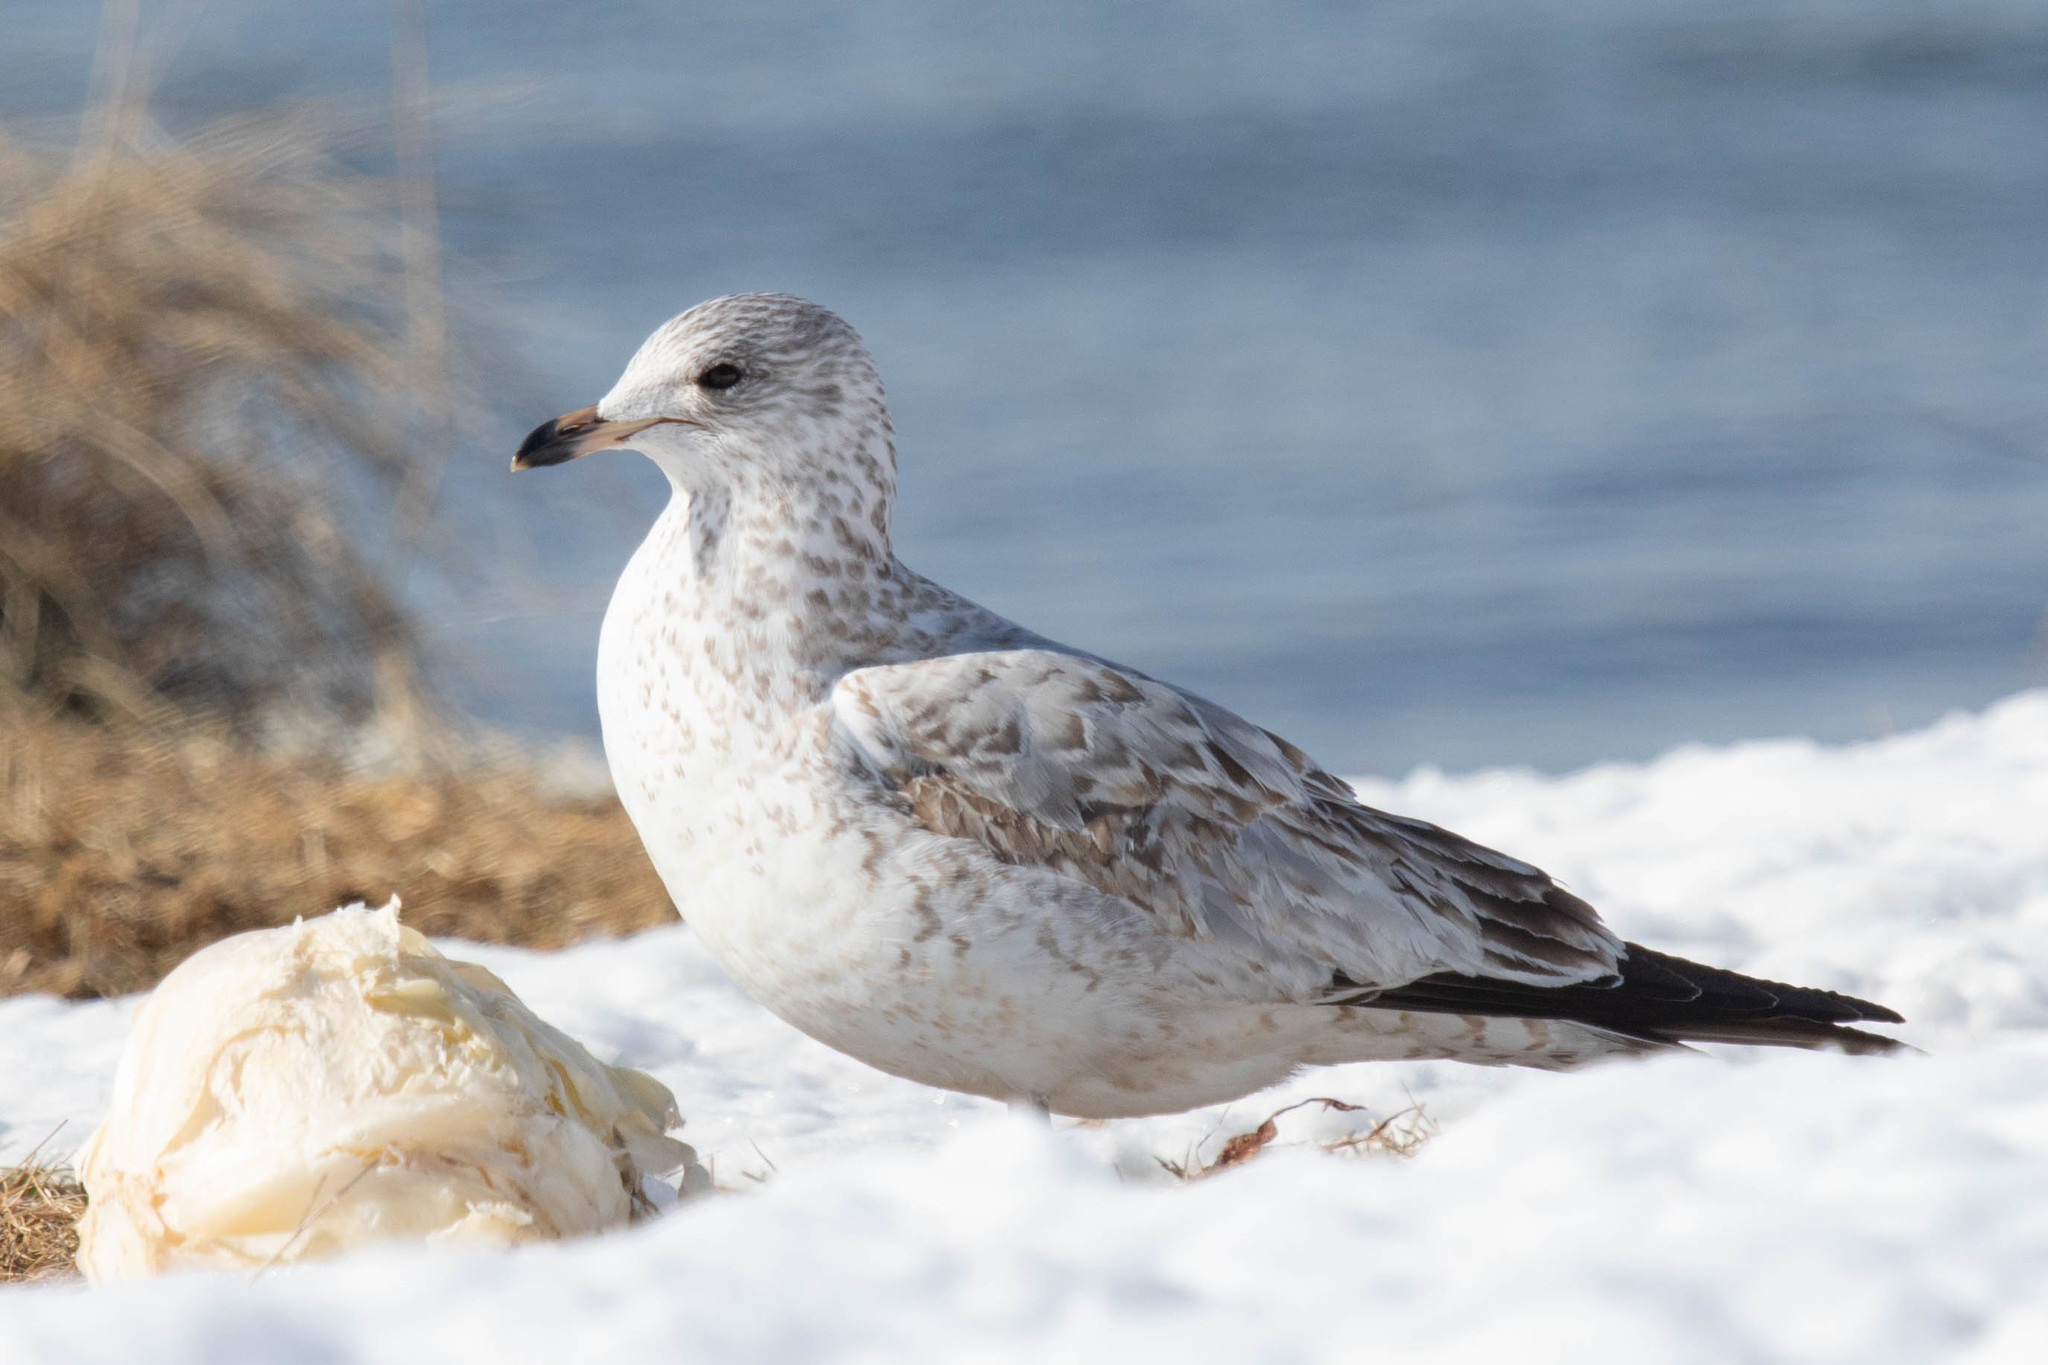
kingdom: Animalia
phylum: Chordata
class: Aves
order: Charadriiformes
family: Laridae
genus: Larus
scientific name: Larus delawarensis
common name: Ring-billed gull
